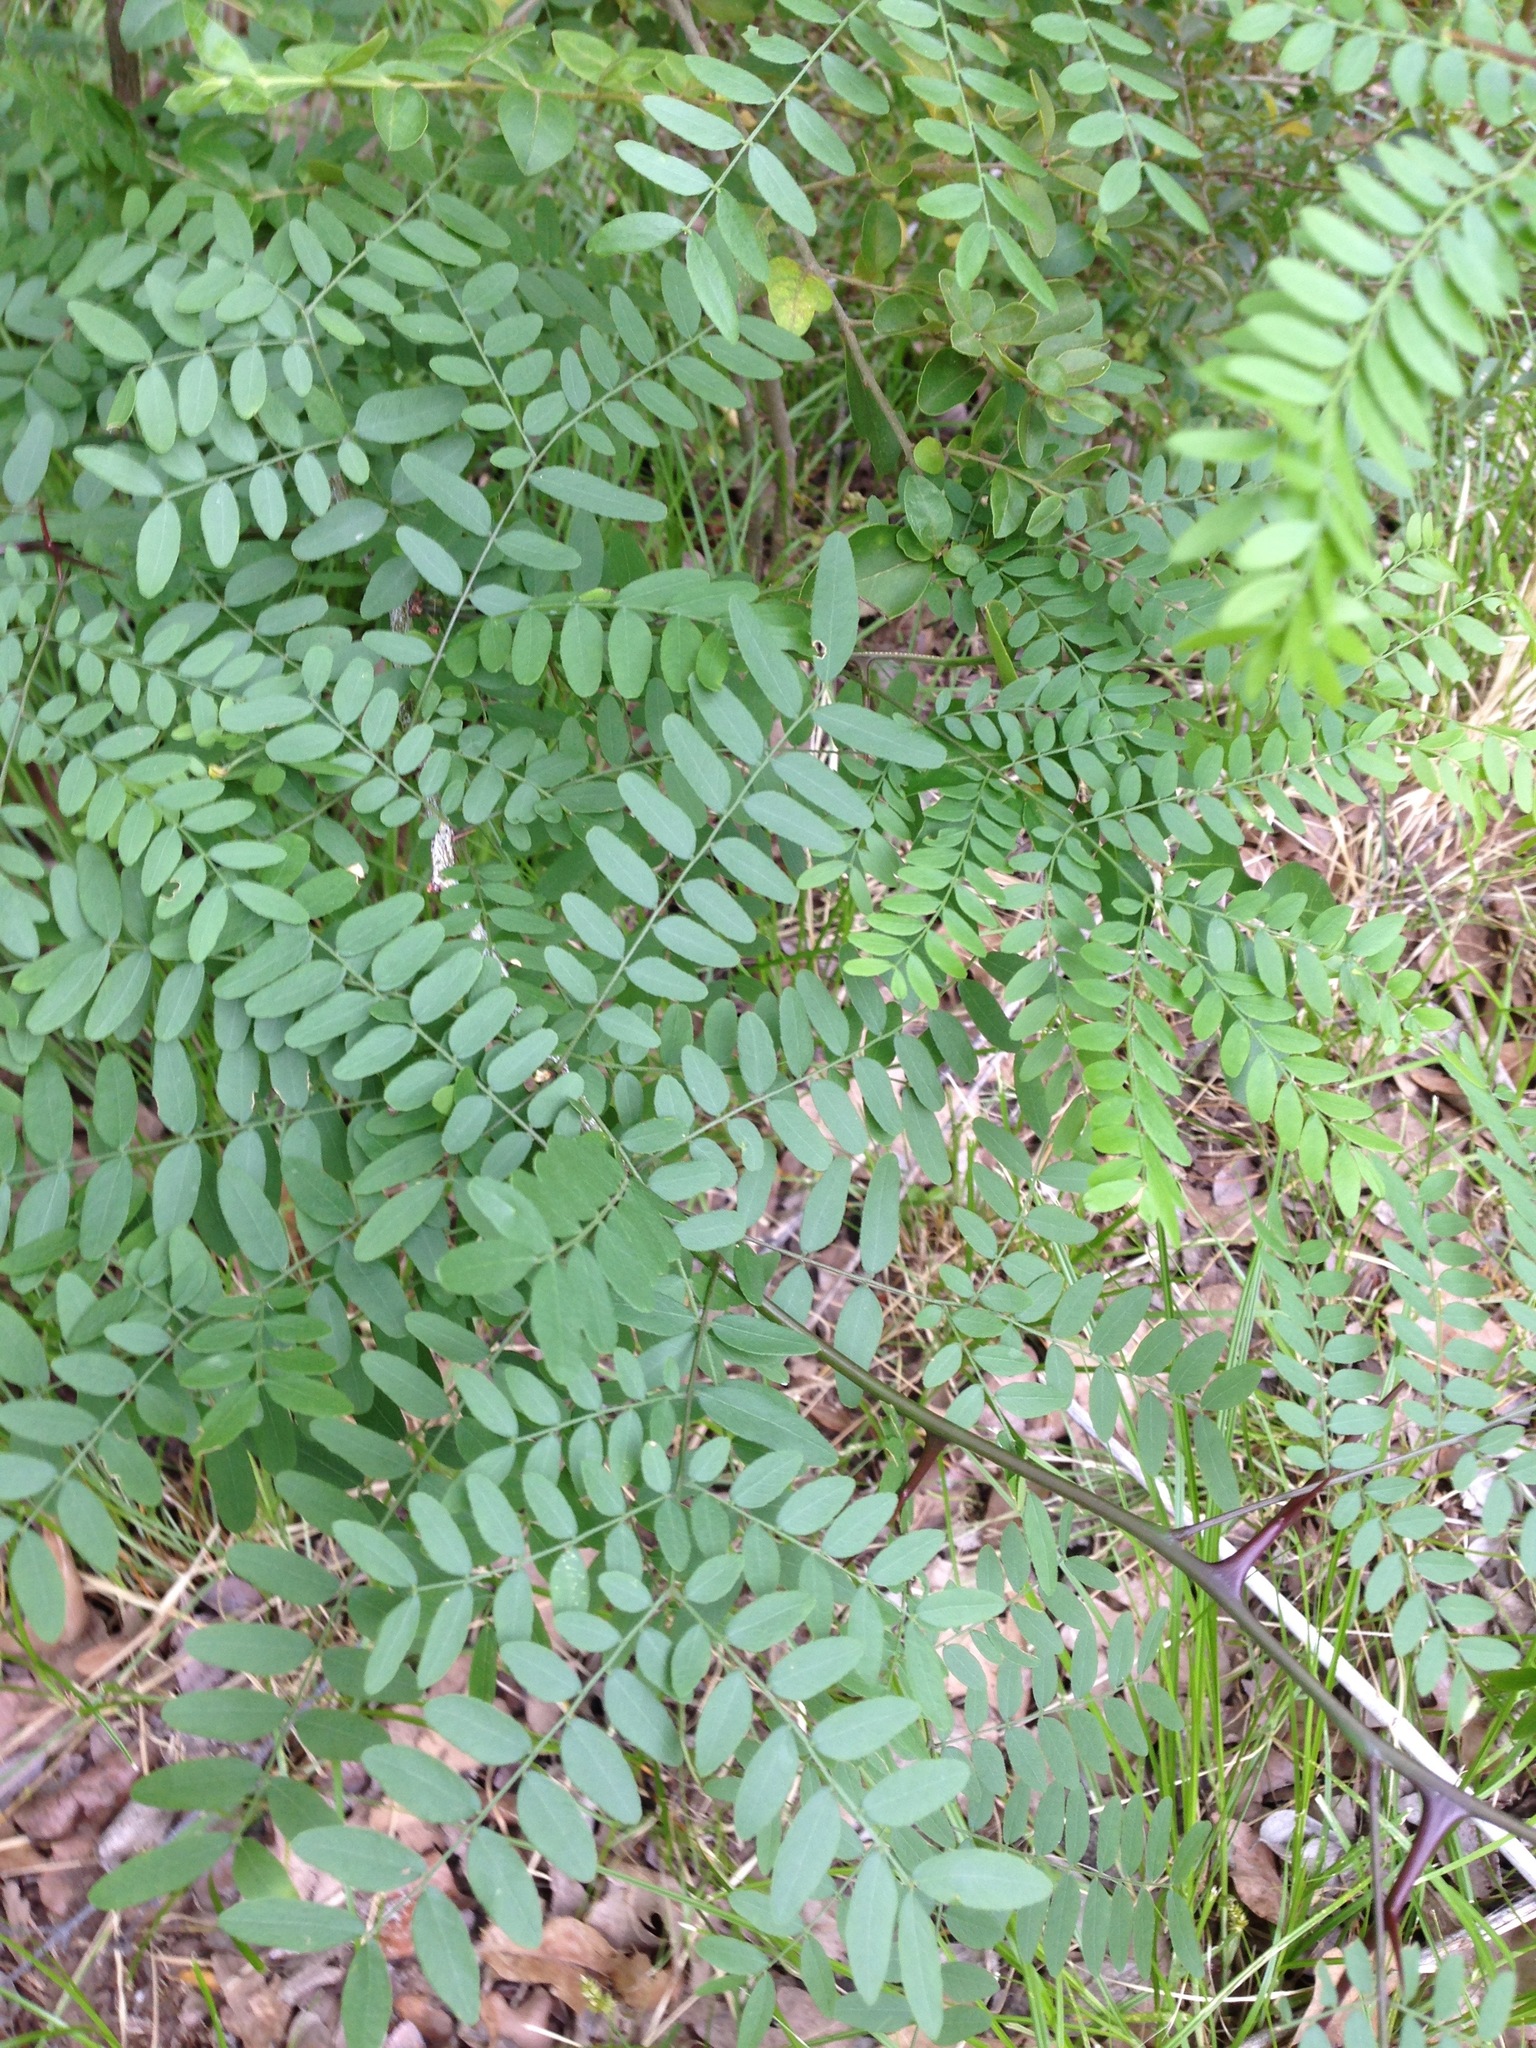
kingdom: Plantae
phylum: Tracheophyta
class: Magnoliopsida
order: Fabales
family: Fabaceae
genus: Gleditsia
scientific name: Gleditsia triacanthos
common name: Common honeylocust
